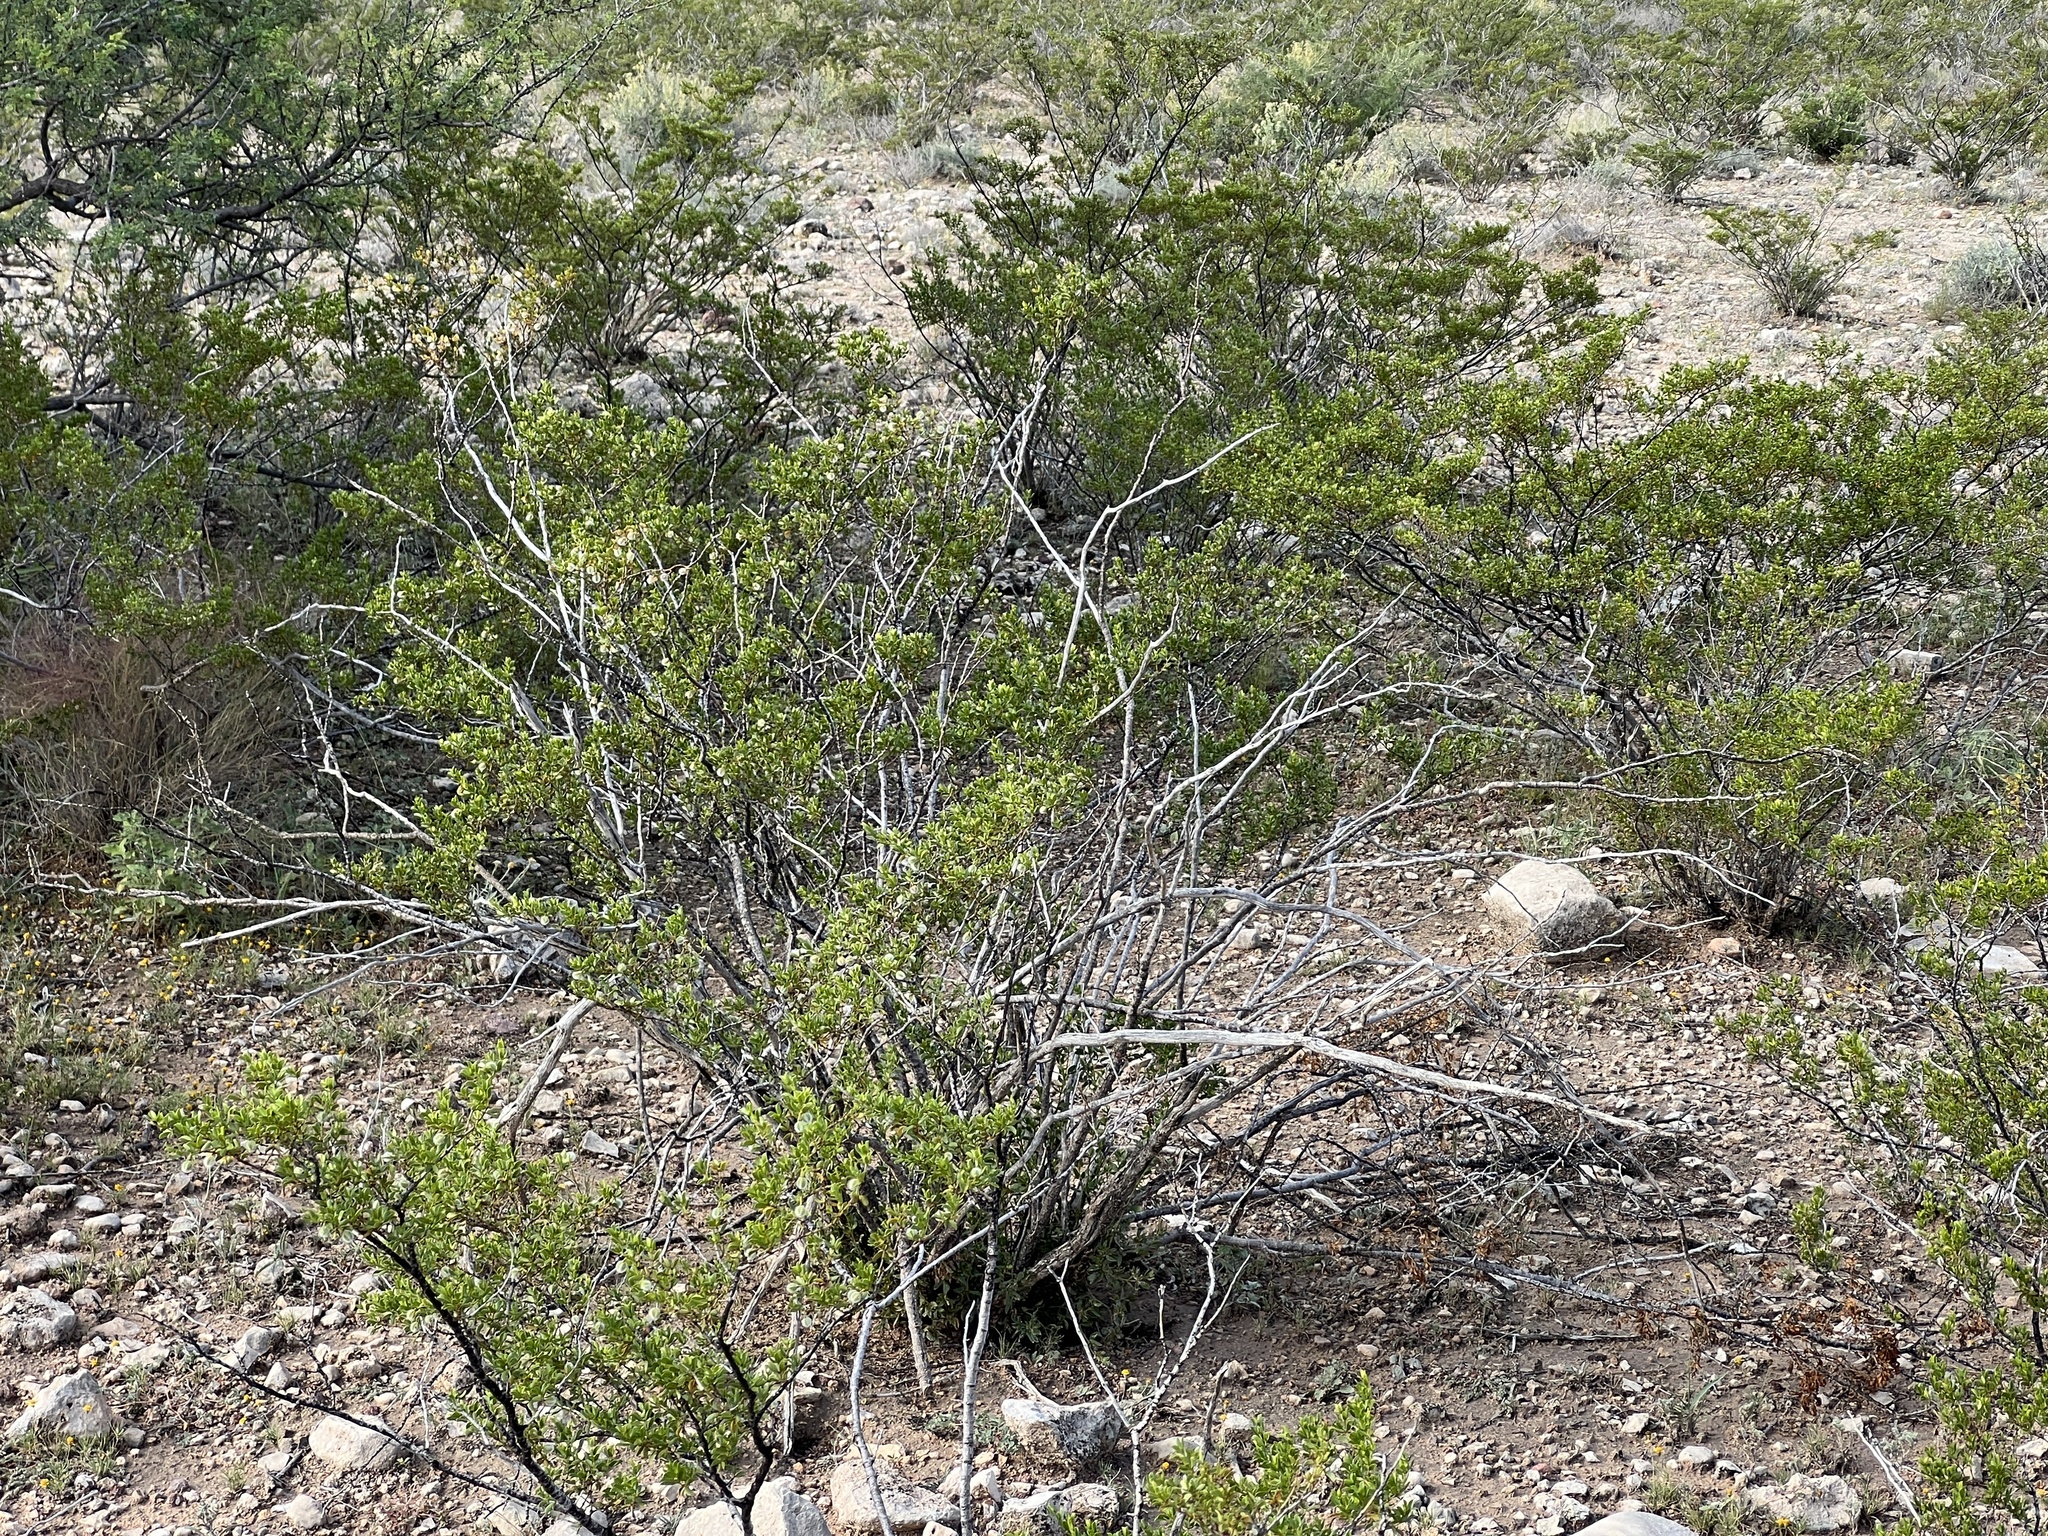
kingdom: Plantae
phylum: Tracheophyta
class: Magnoliopsida
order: Zygophyllales
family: Zygophyllaceae
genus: Larrea
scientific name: Larrea tridentata
